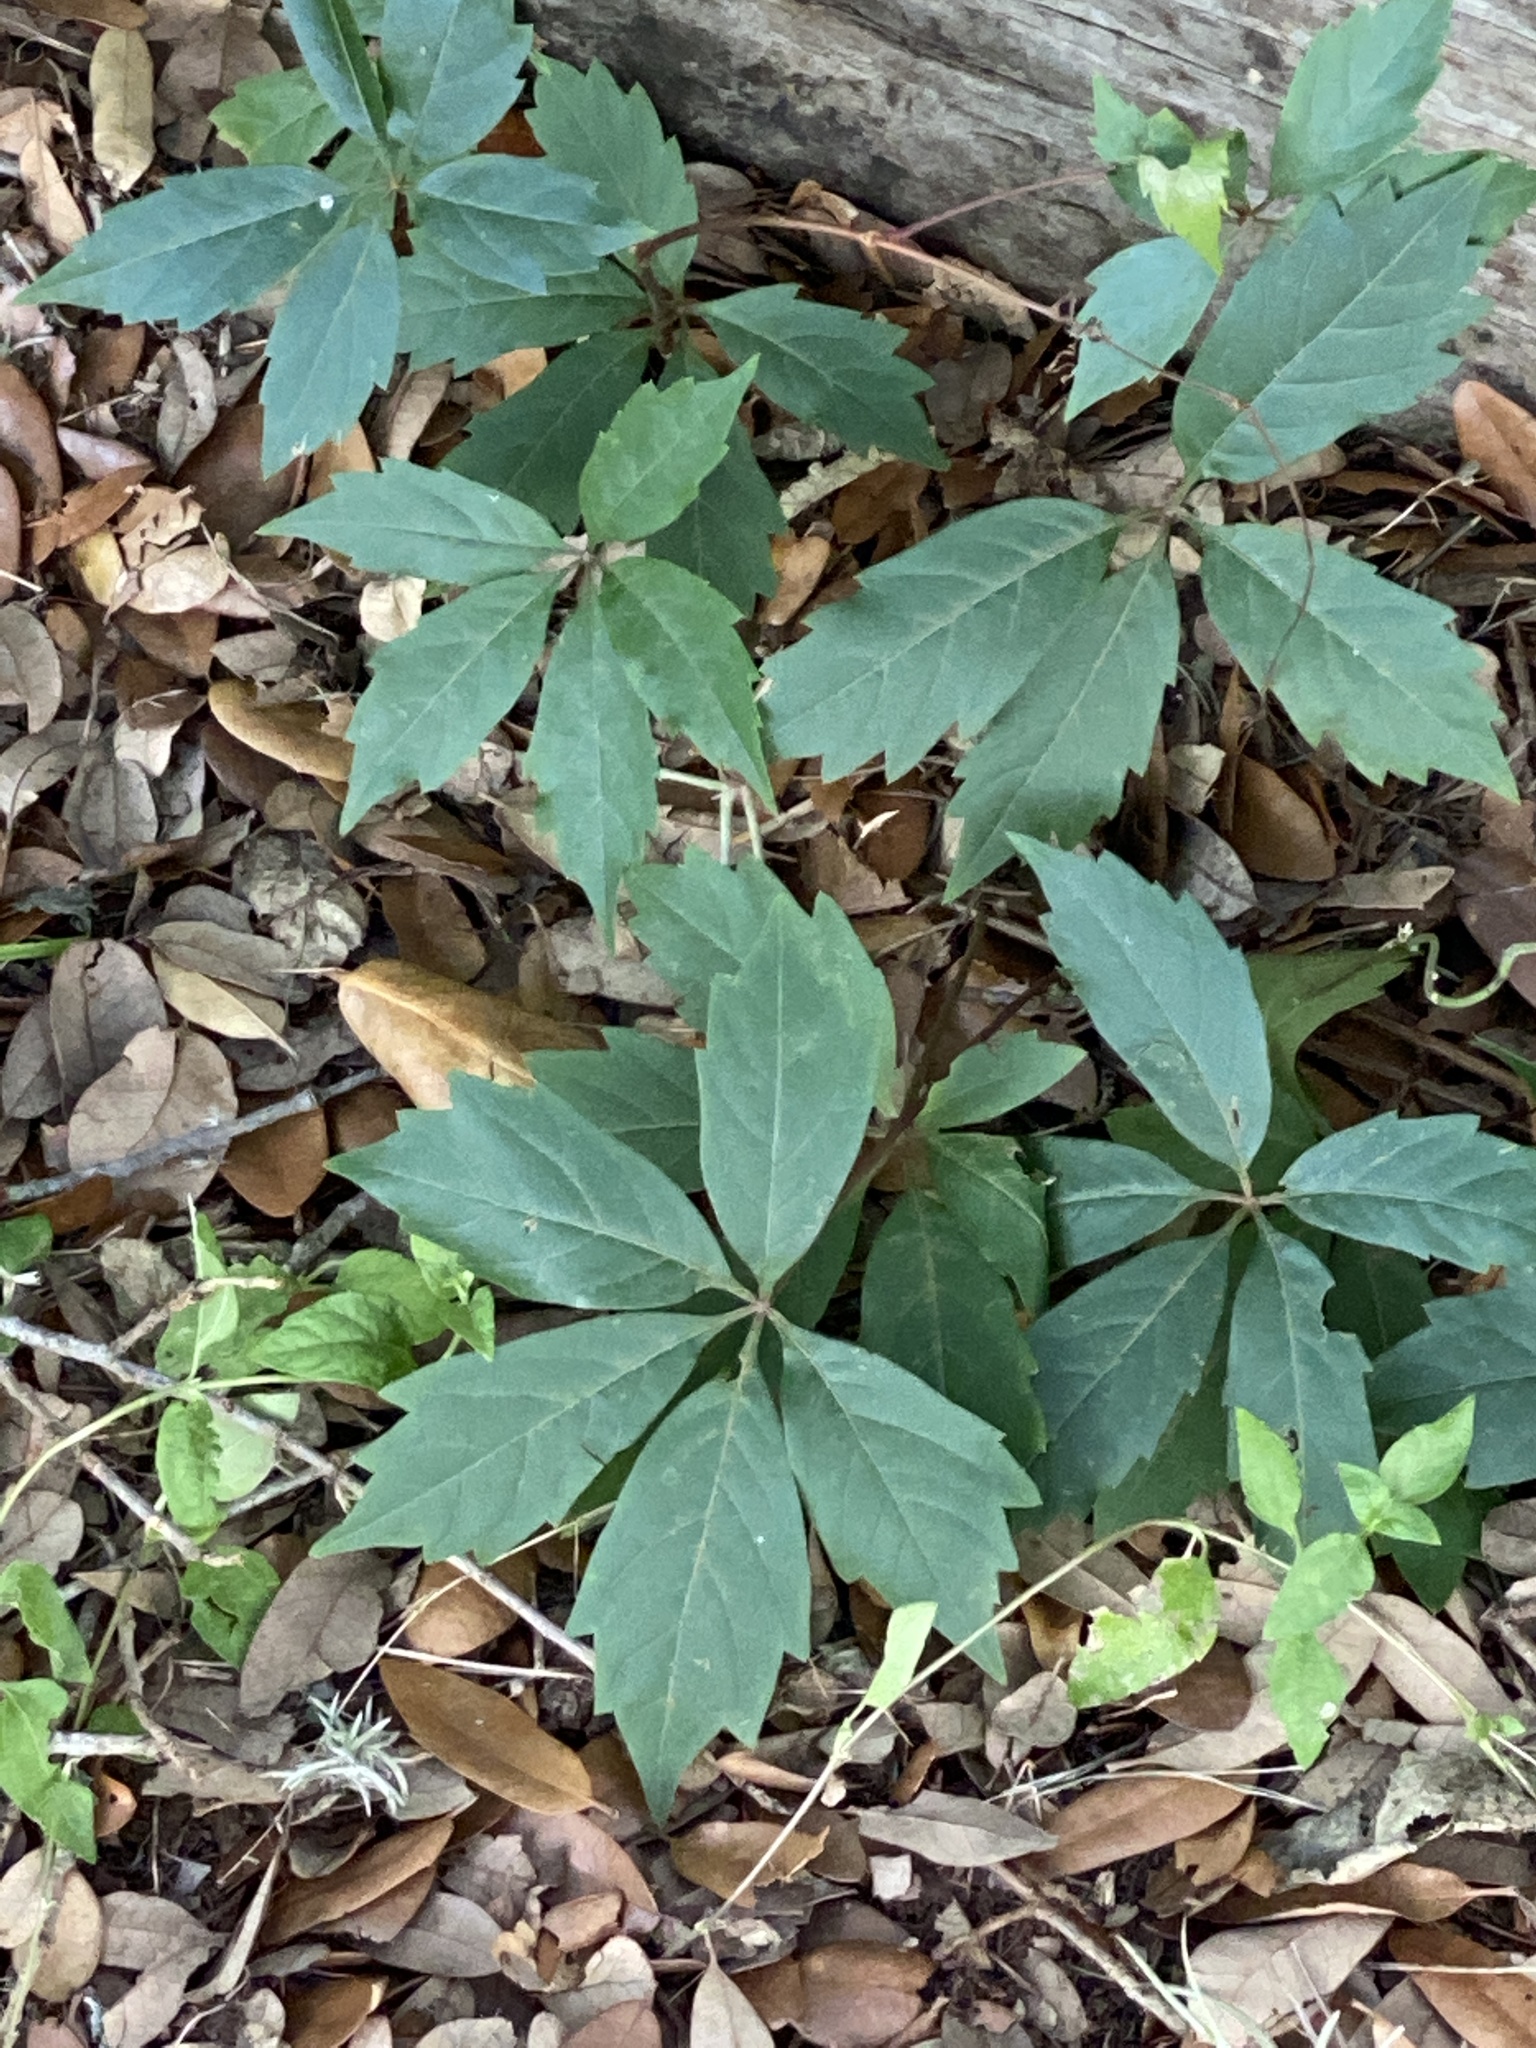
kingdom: Plantae
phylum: Tracheophyta
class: Magnoliopsida
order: Vitales
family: Vitaceae
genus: Parthenocissus
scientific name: Parthenocissus quinquefolia
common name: Virginia-creeper
